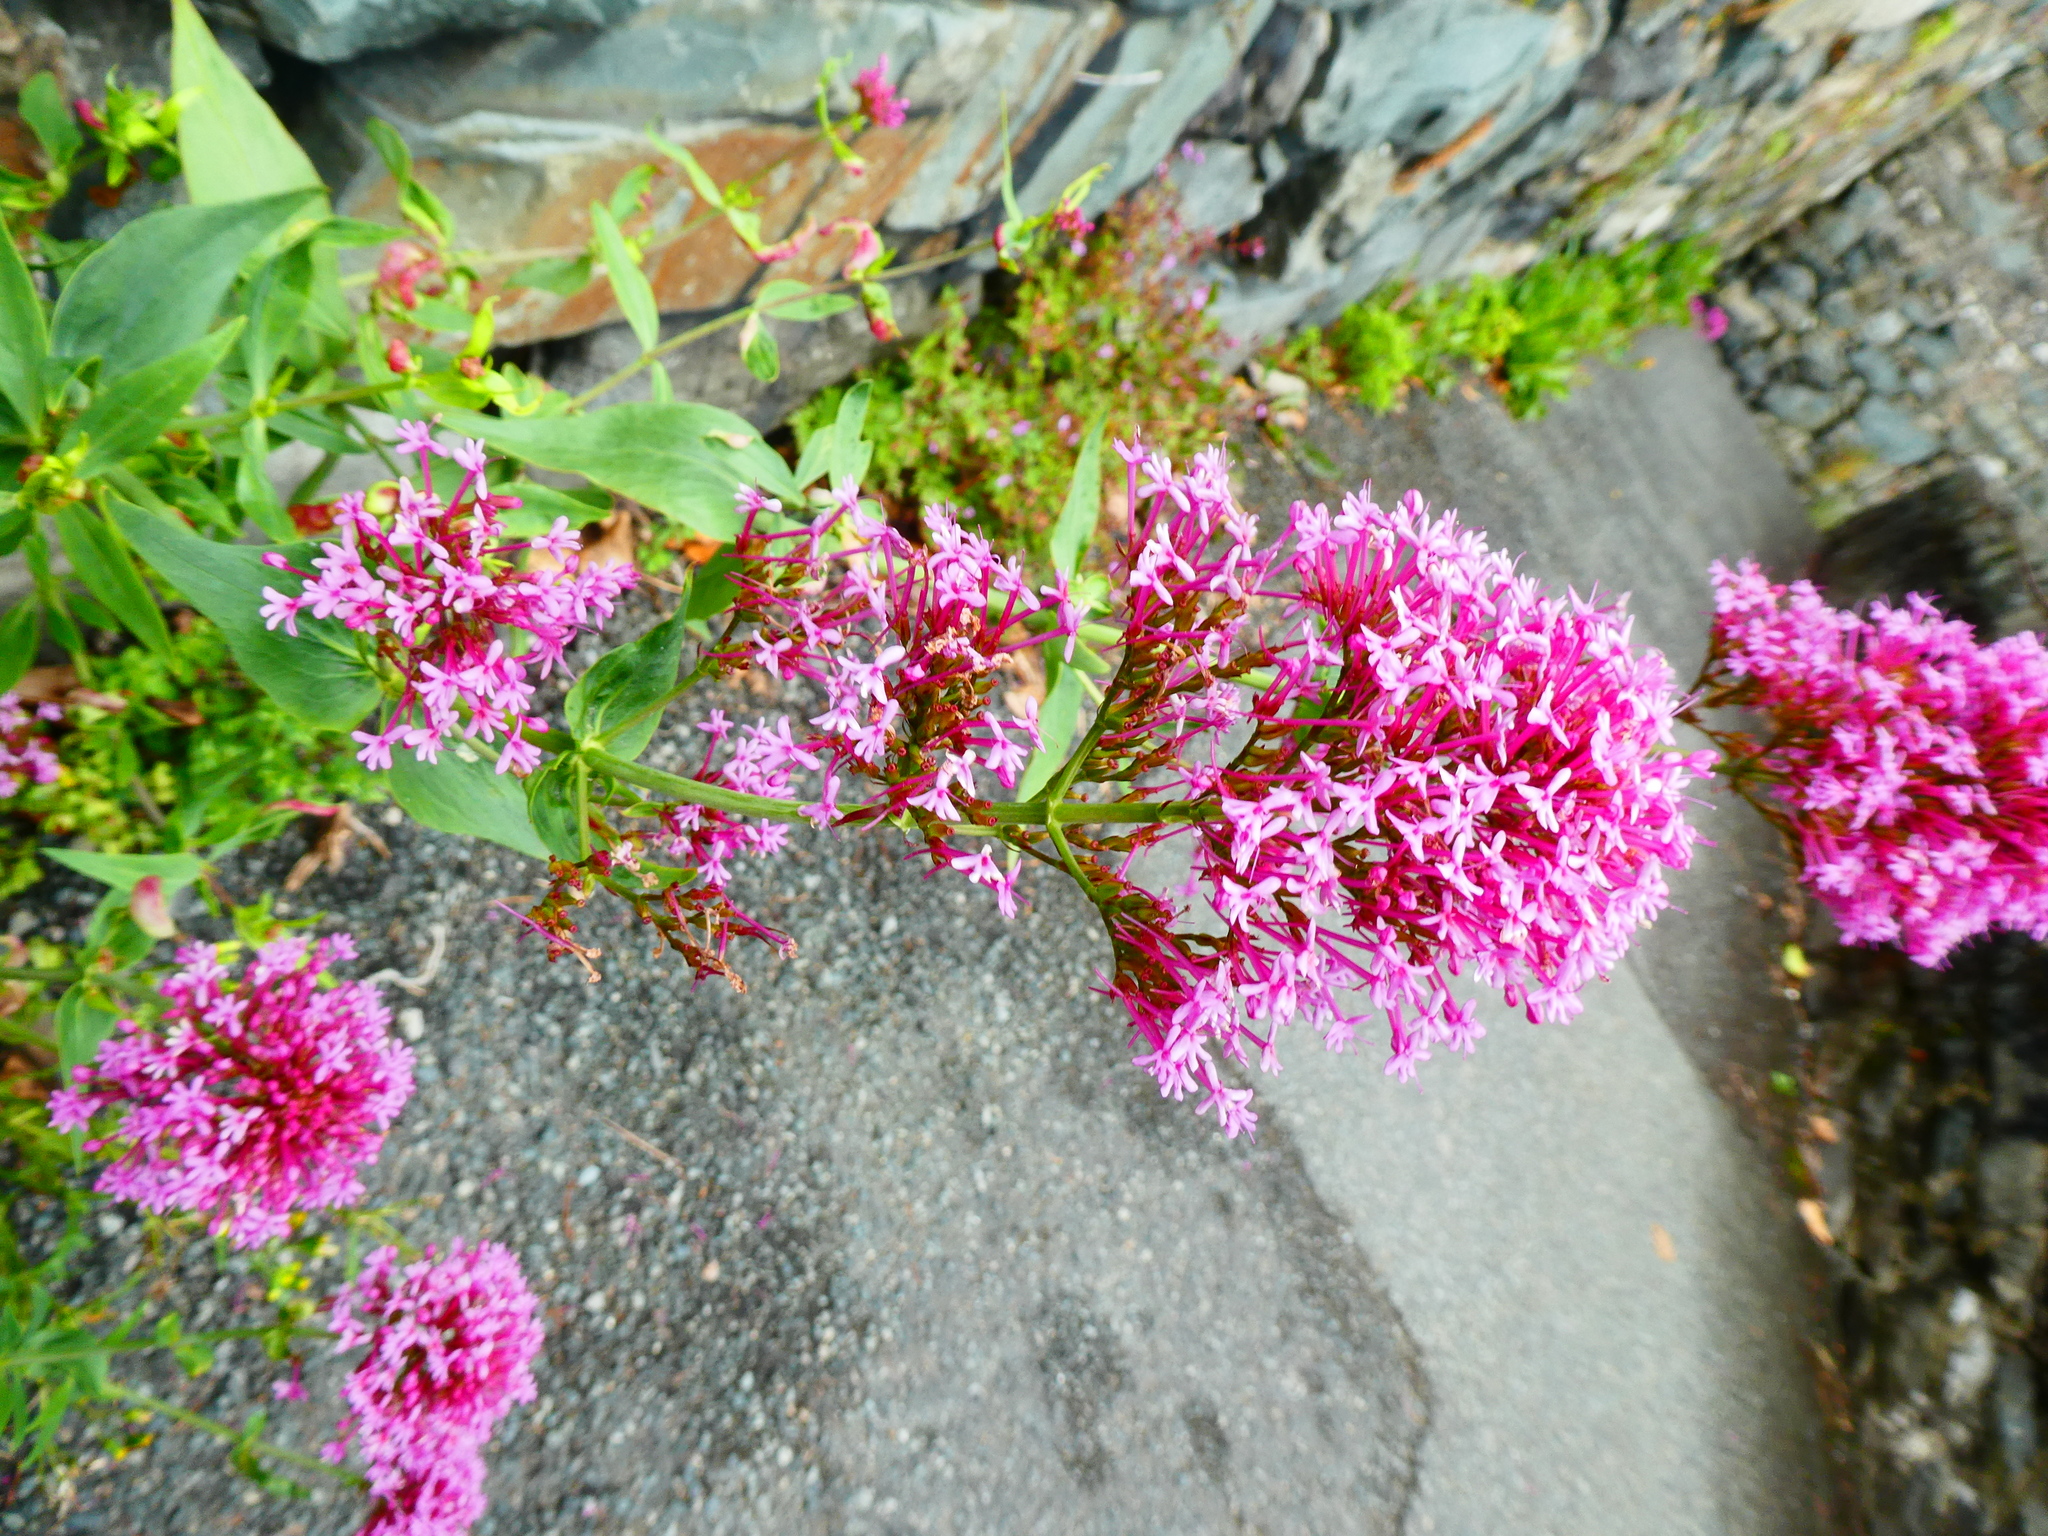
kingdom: Plantae
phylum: Tracheophyta
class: Magnoliopsida
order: Dipsacales
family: Caprifoliaceae
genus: Centranthus
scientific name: Centranthus ruber
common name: Red valerian
